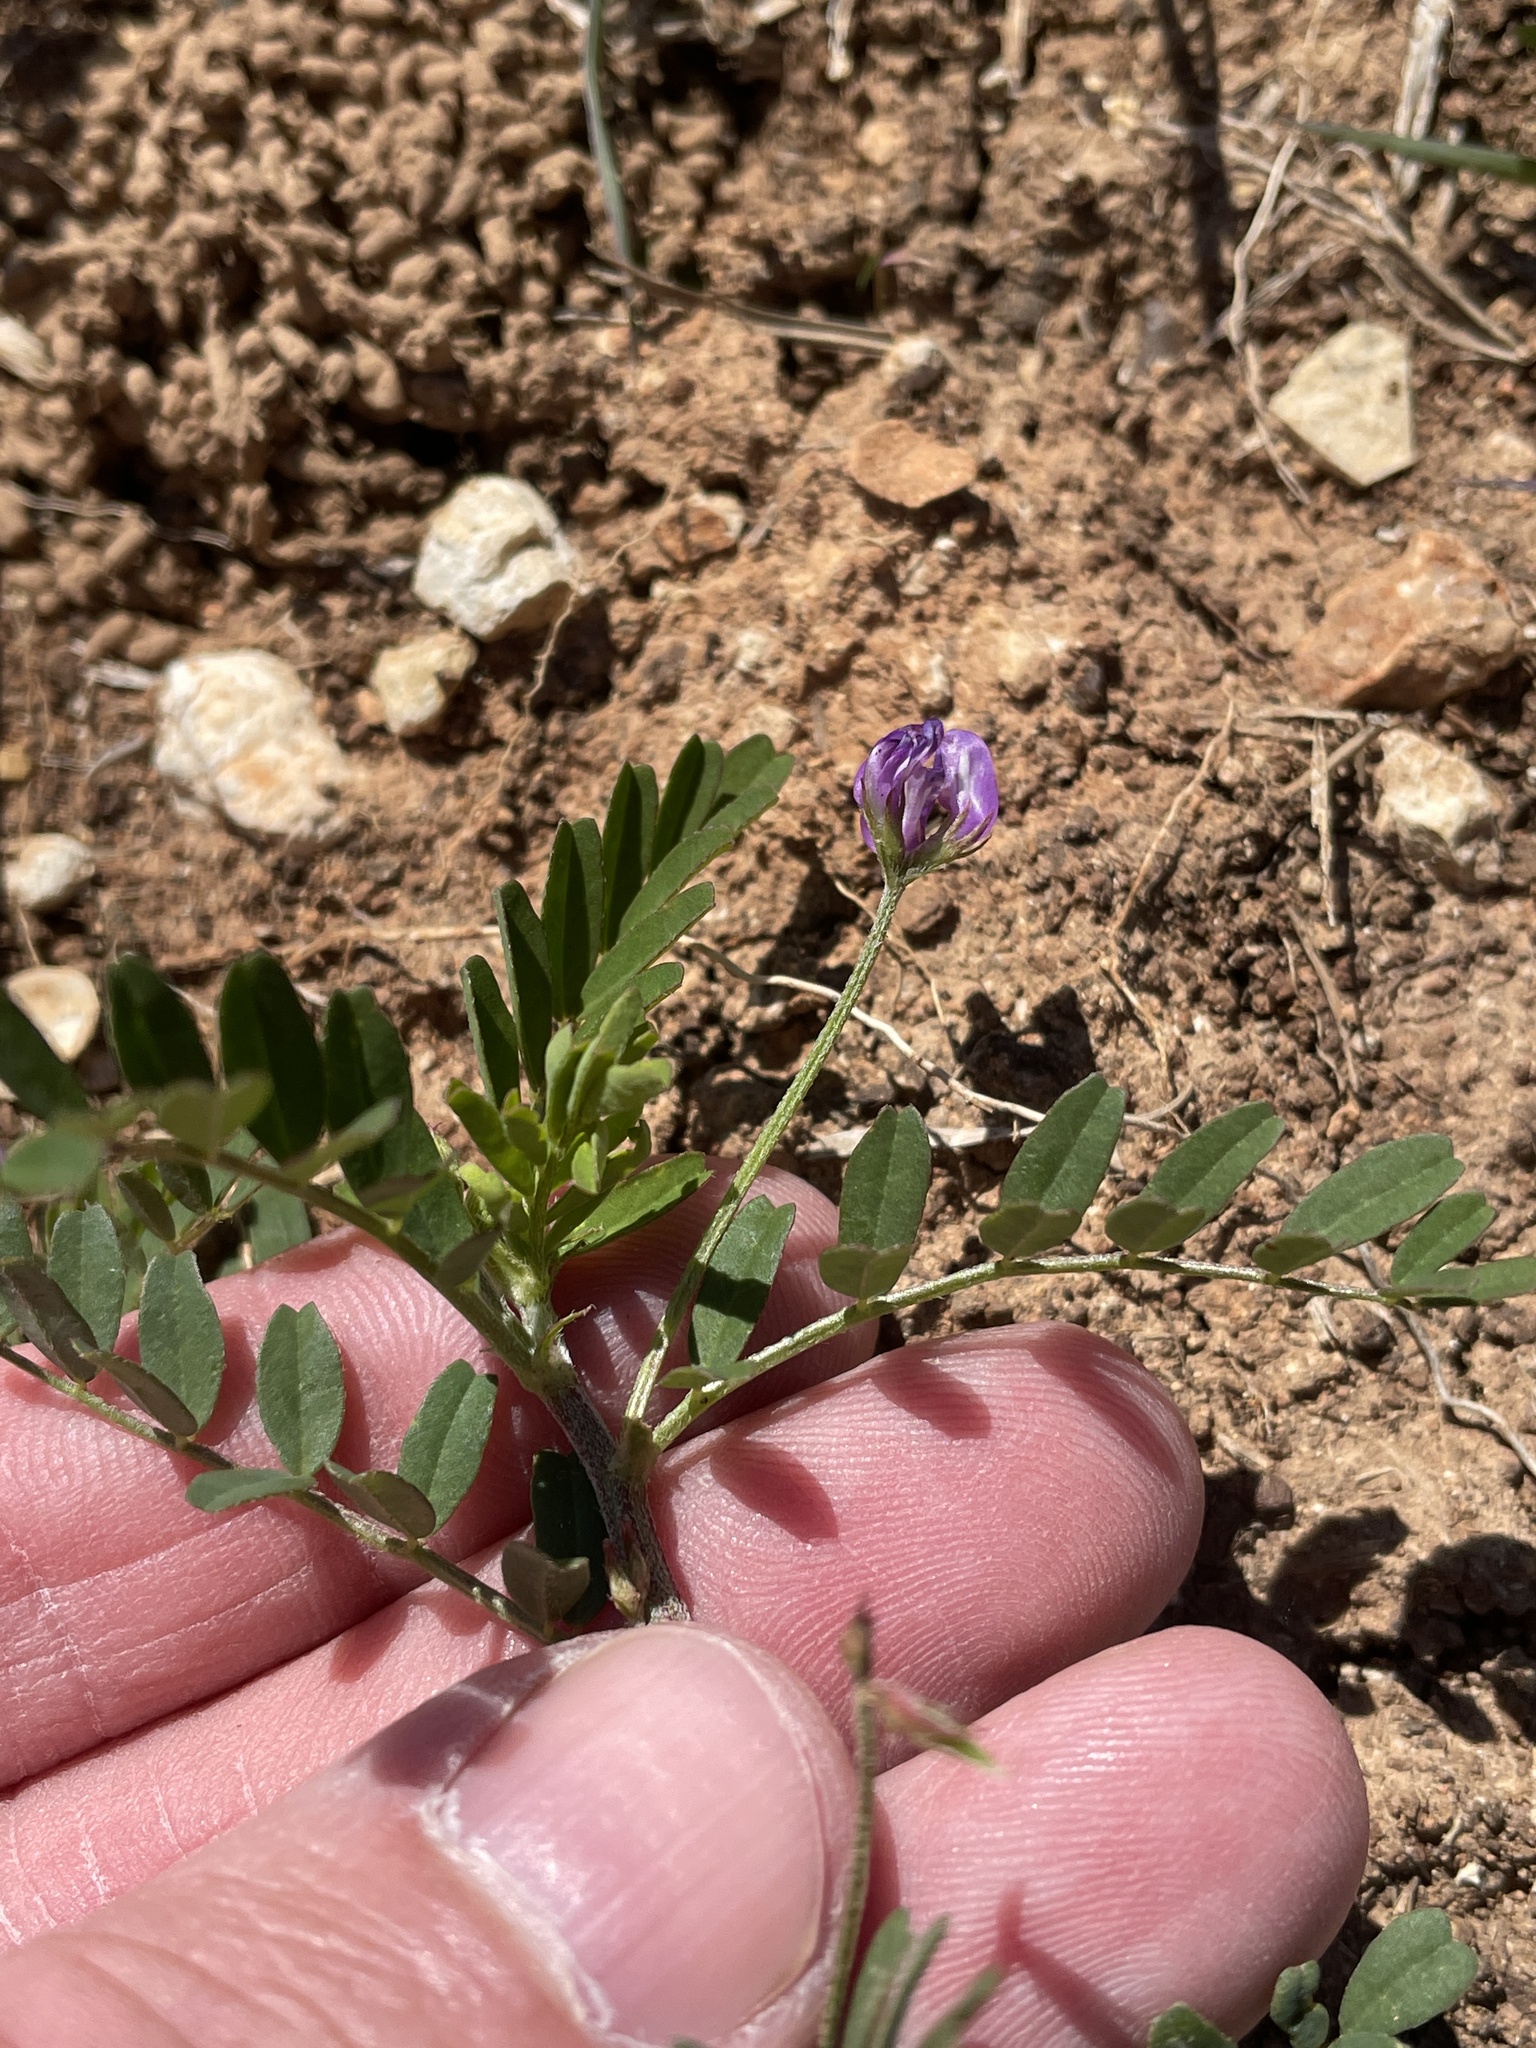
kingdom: Plantae
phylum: Tracheophyta
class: Magnoliopsida
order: Fabales
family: Fabaceae
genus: Astragalus
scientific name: Astragalus nuttallianus
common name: Smallflowered milkvetch
